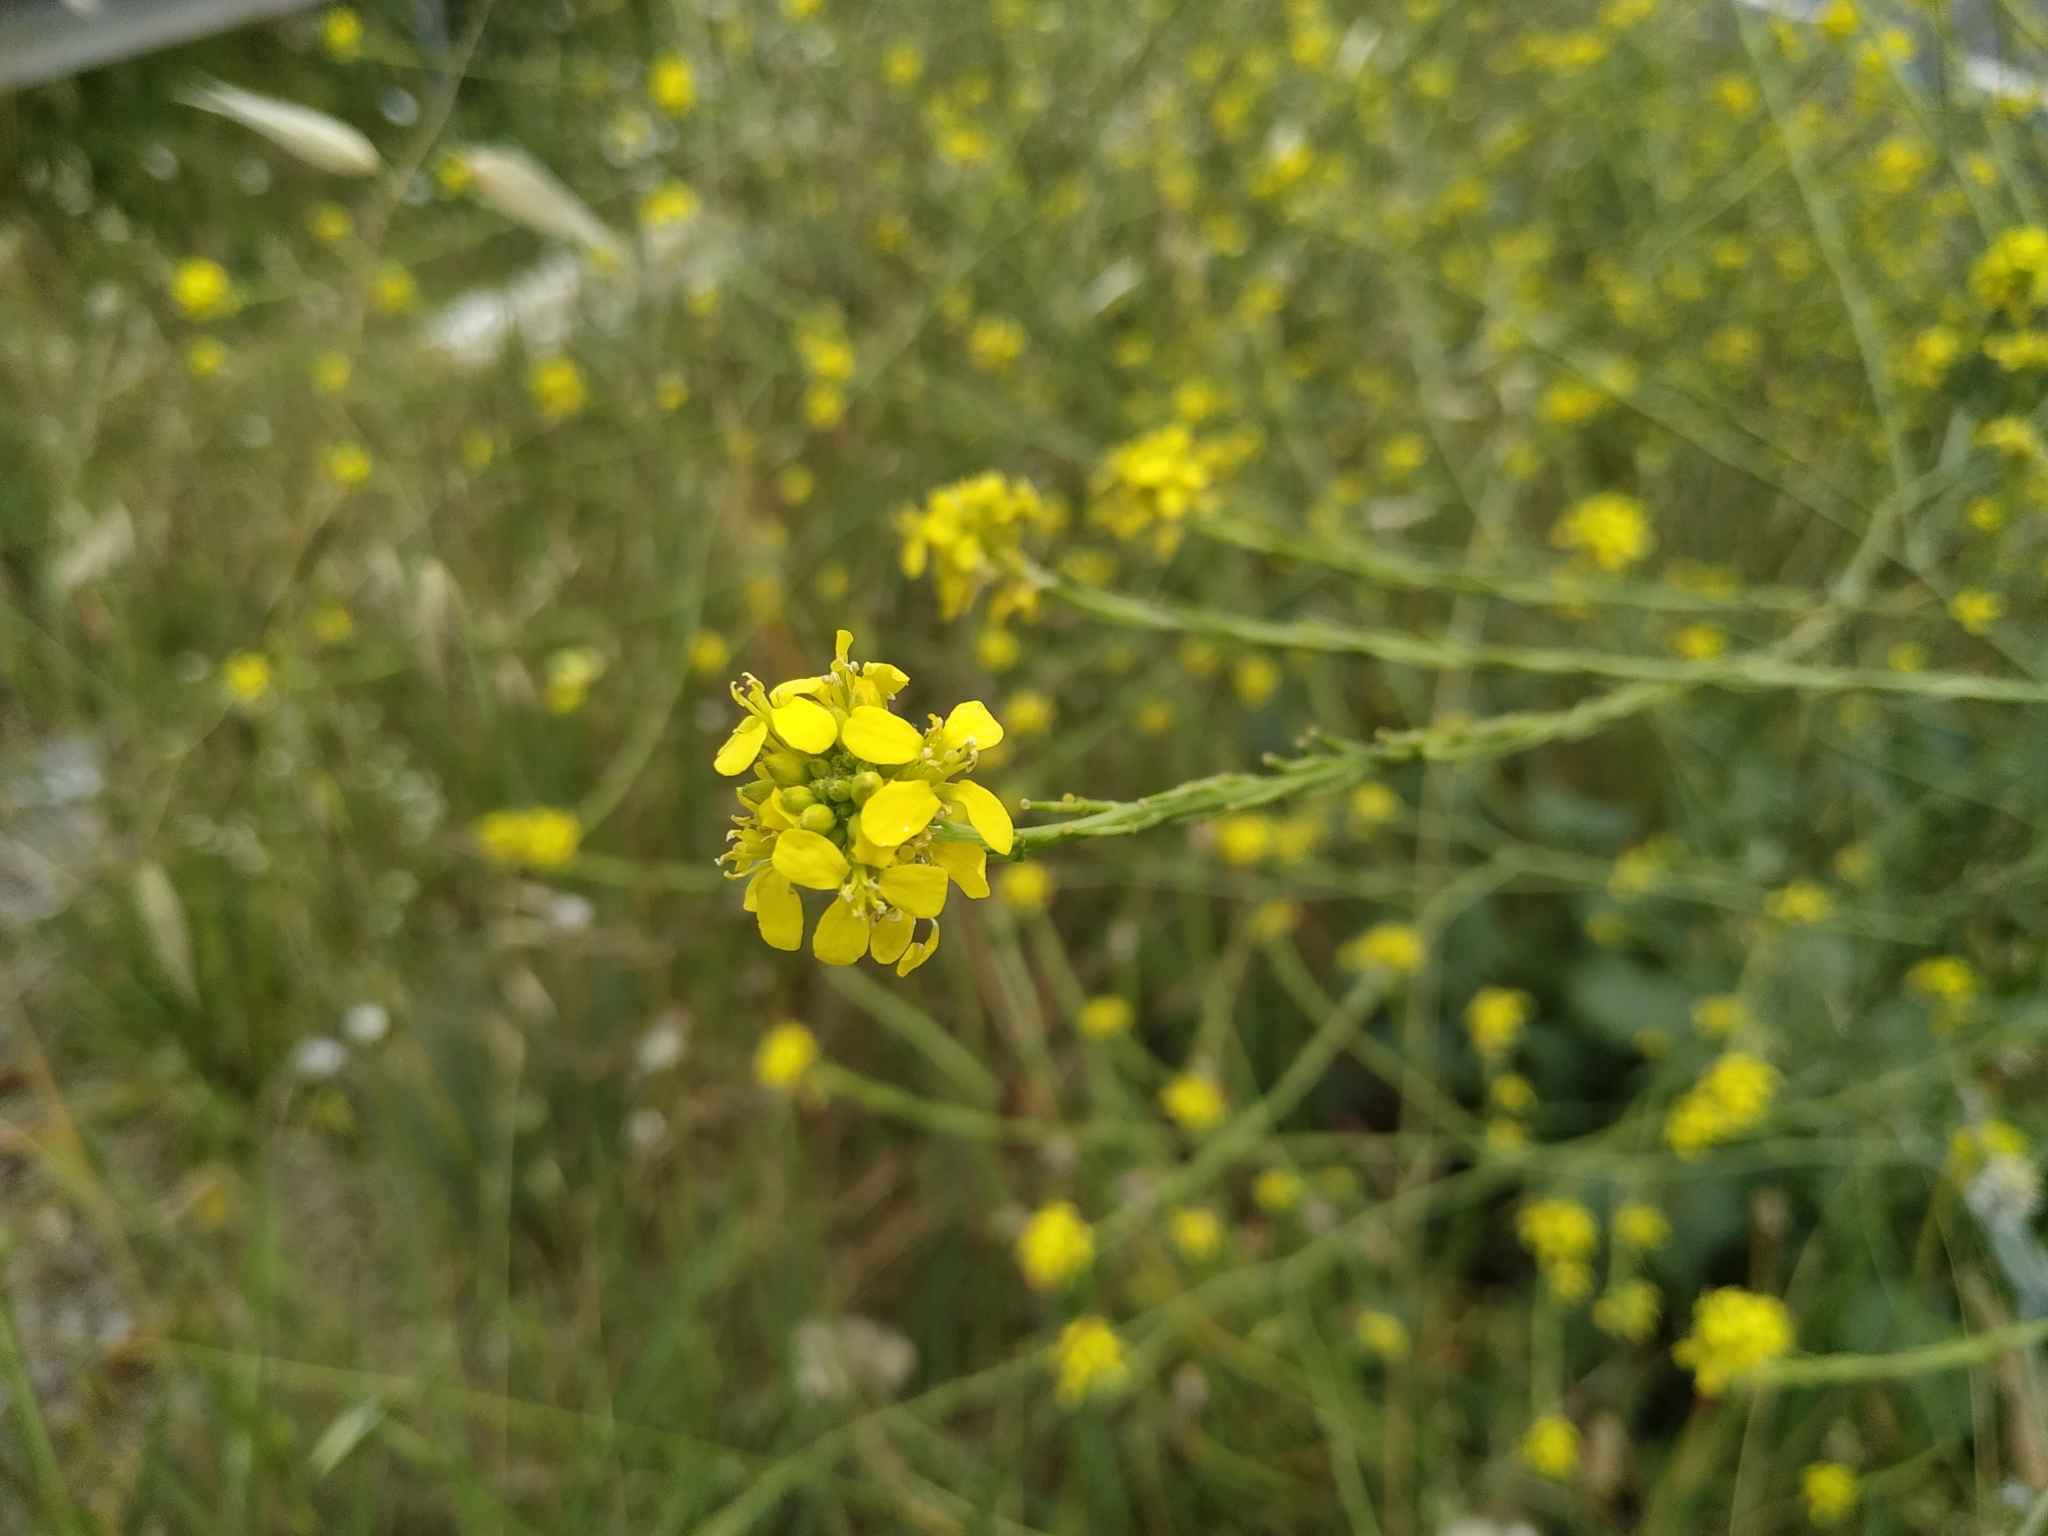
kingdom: Plantae
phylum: Tracheophyta
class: Magnoliopsida
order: Brassicales
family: Brassicaceae
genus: Hirschfeldia
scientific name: Hirschfeldia incana
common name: Hoary mustard
